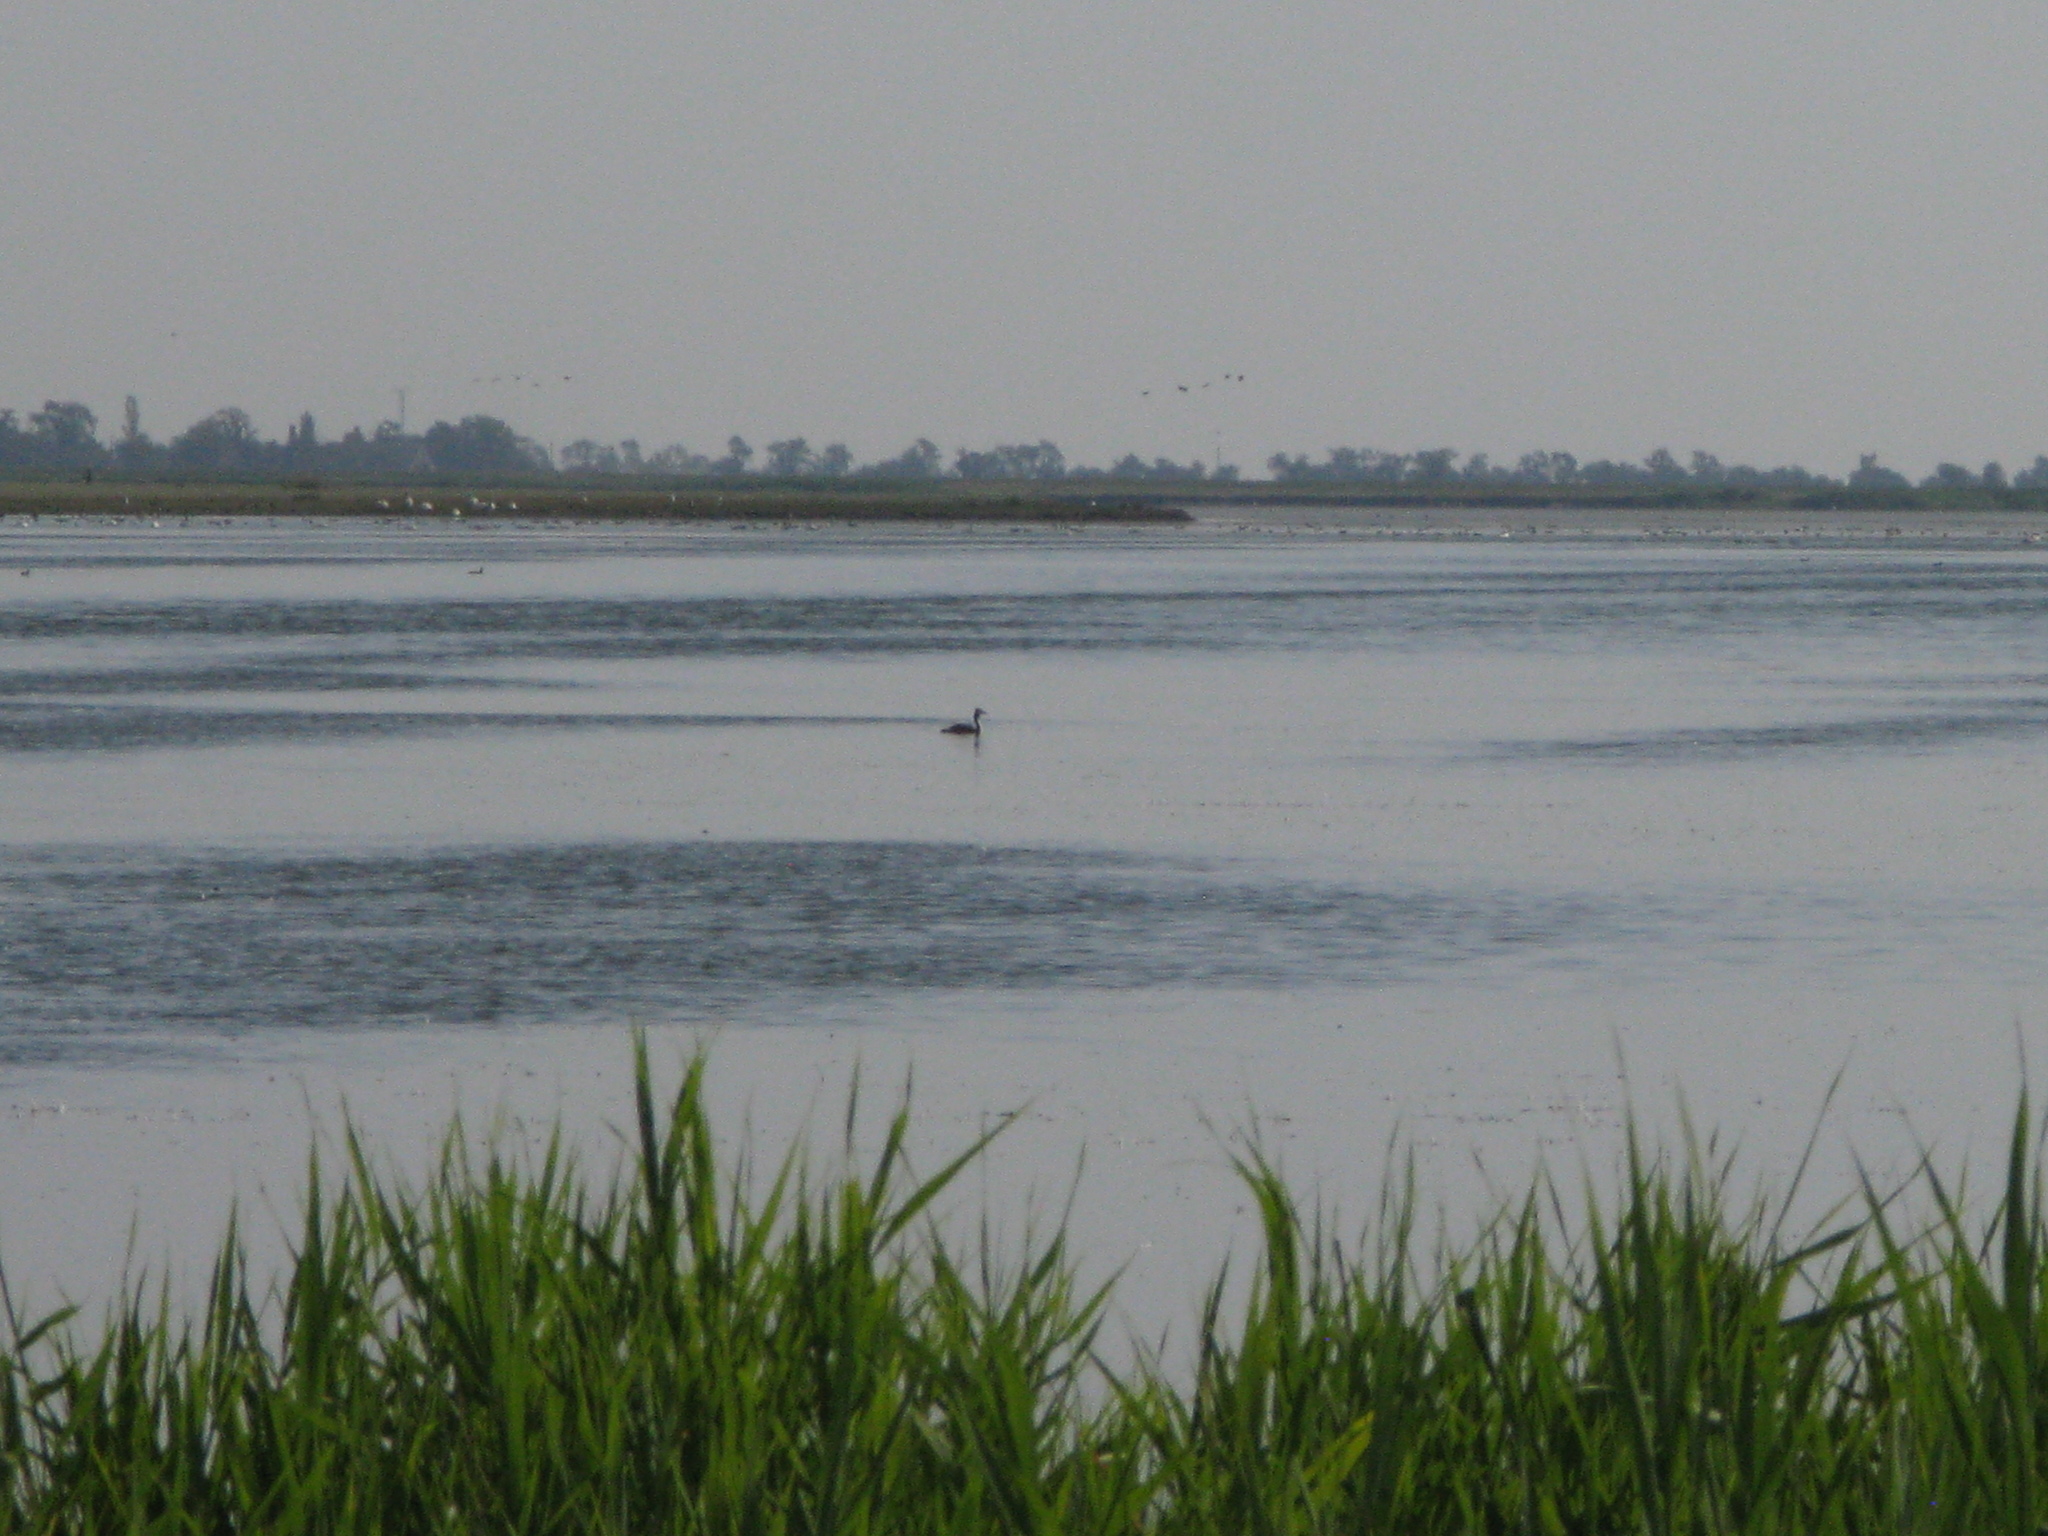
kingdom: Animalia
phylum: Chordata
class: Aves
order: Podicipediformes
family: Podicipedidae
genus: Podiceps
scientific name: Podiceps cristatus
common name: Great crested grebe
